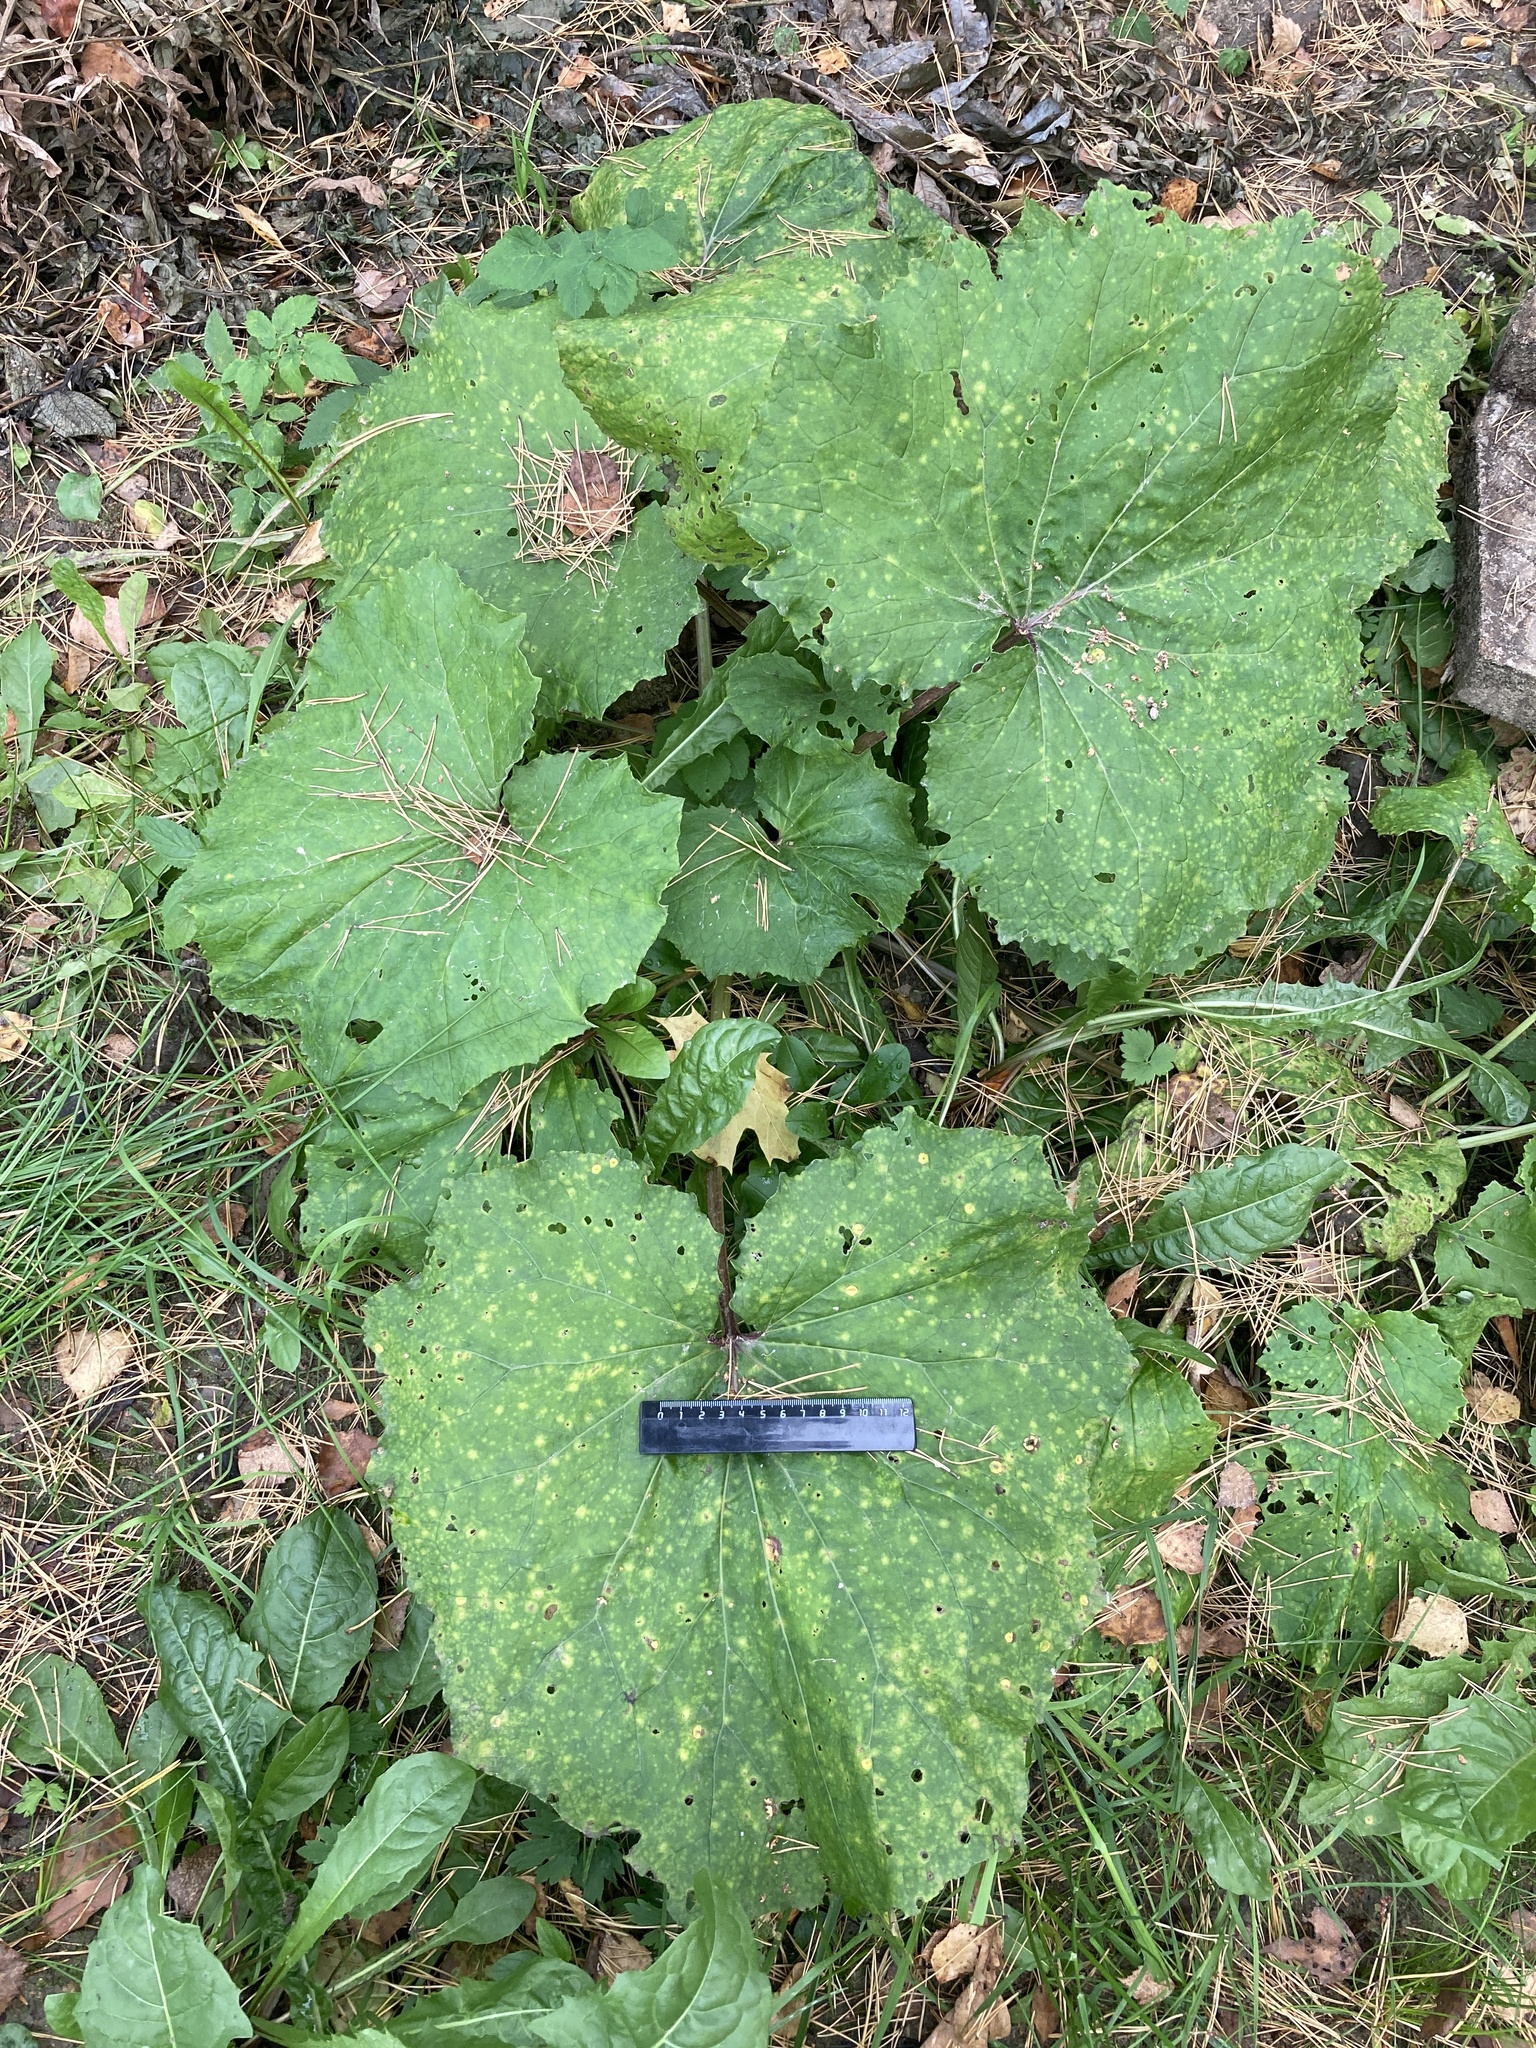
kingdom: Plantae
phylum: Tracheophyta
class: Magnoliopsida
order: Asterales
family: Asteraceae
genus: Tussilago
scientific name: Tussilago farfara
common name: Coltsfoot
